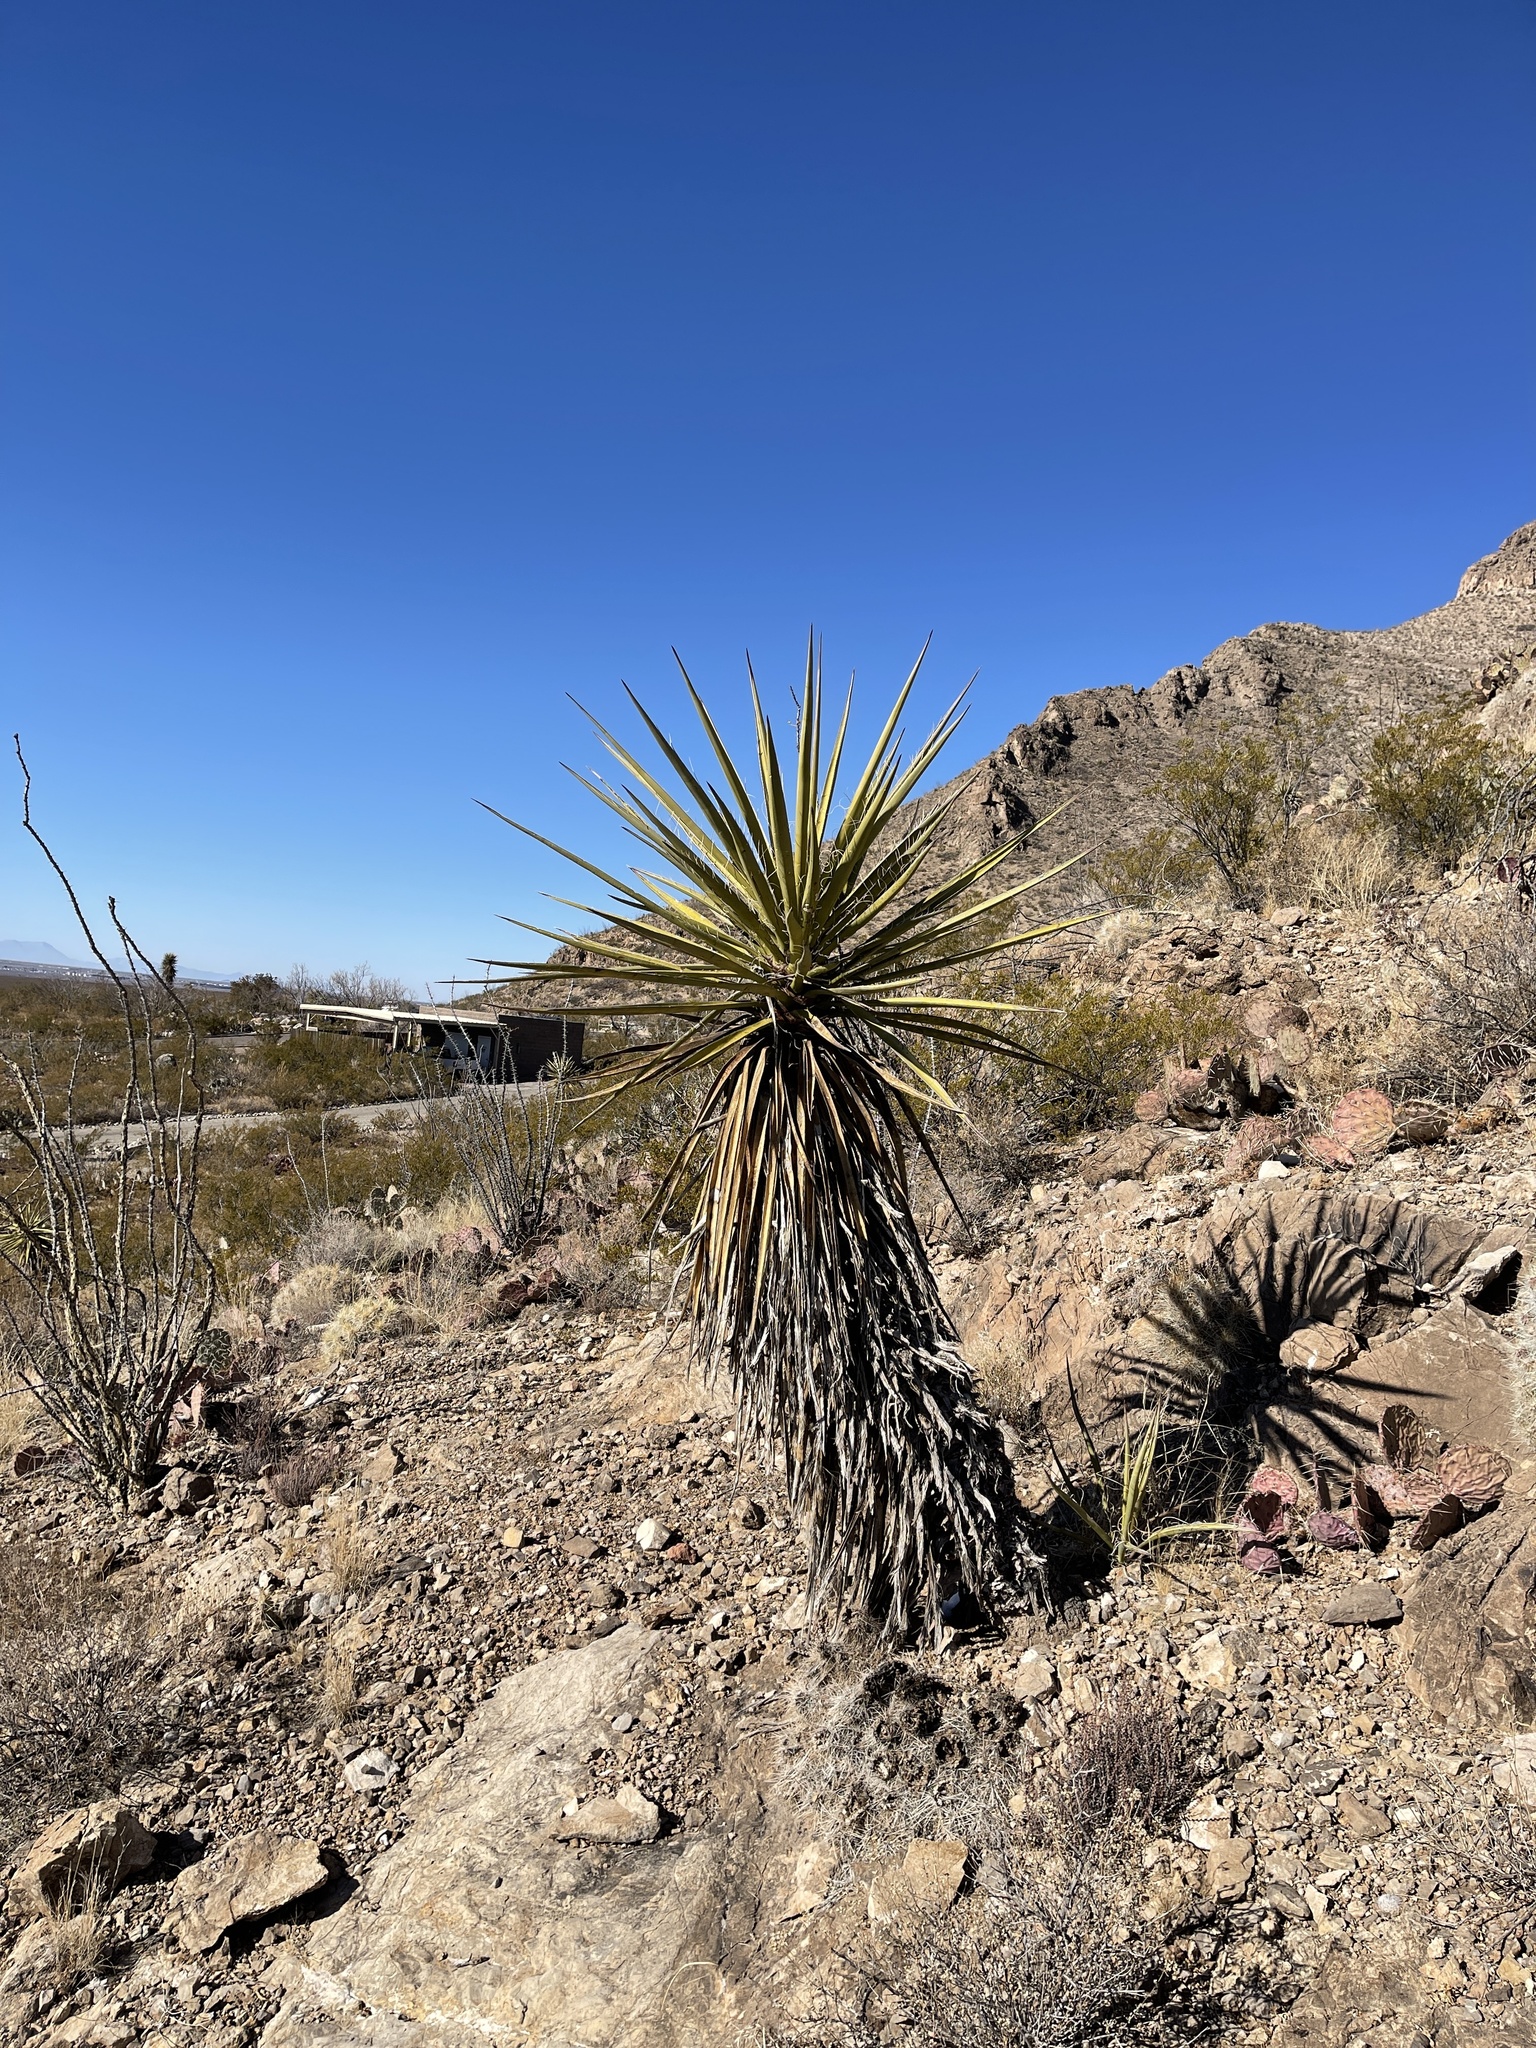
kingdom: Plantae
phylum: Tracheophyta
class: Liliopsida
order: Asparagales
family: Asparagaceae
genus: Yucca
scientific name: Yucca treculiana
